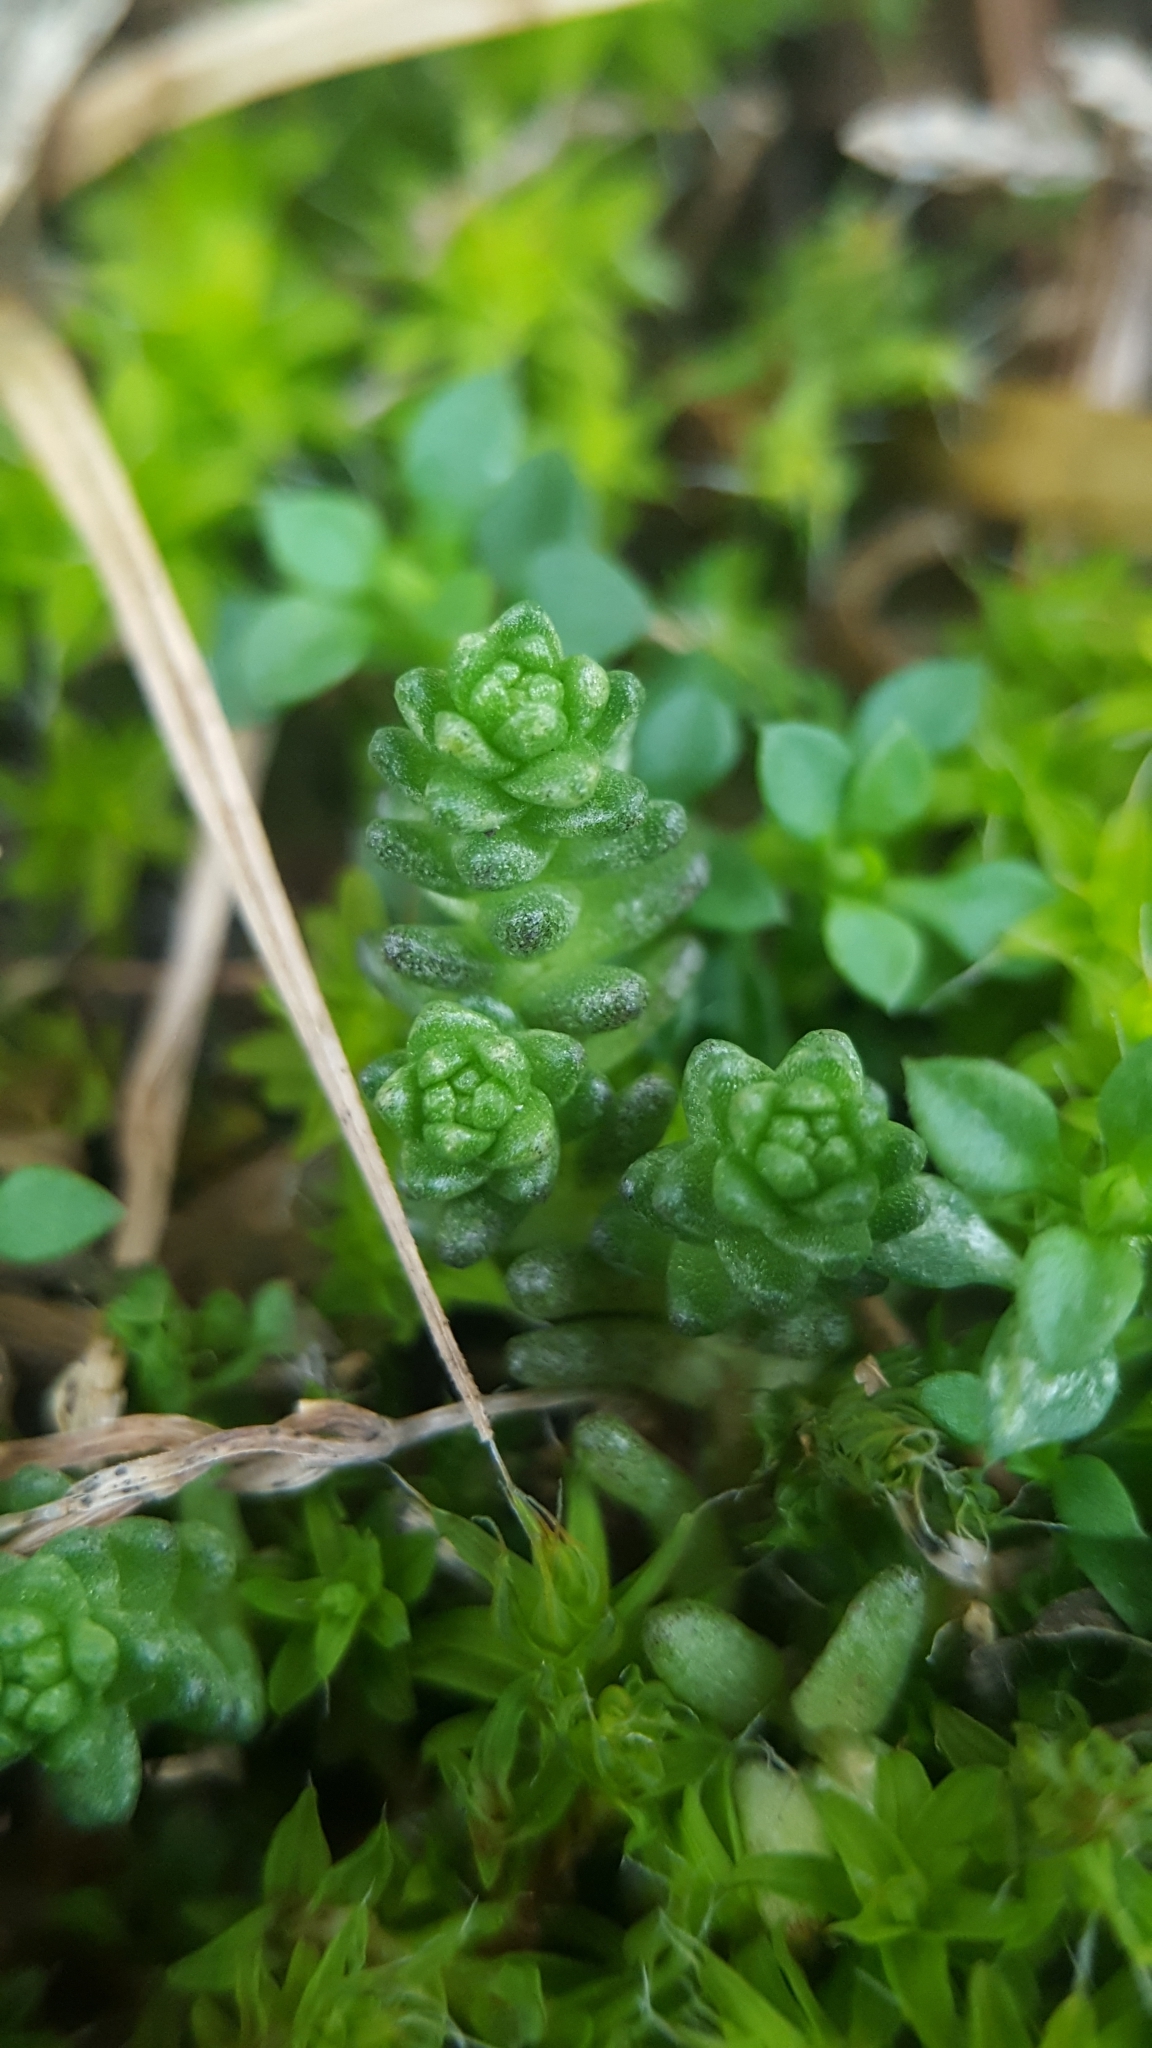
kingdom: Plantae
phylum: Tracheophyta
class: Magnoliopsida
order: Saxifragales
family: Crassulaceae
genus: Sedum
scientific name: Sedum acre
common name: Biting stonecrop
